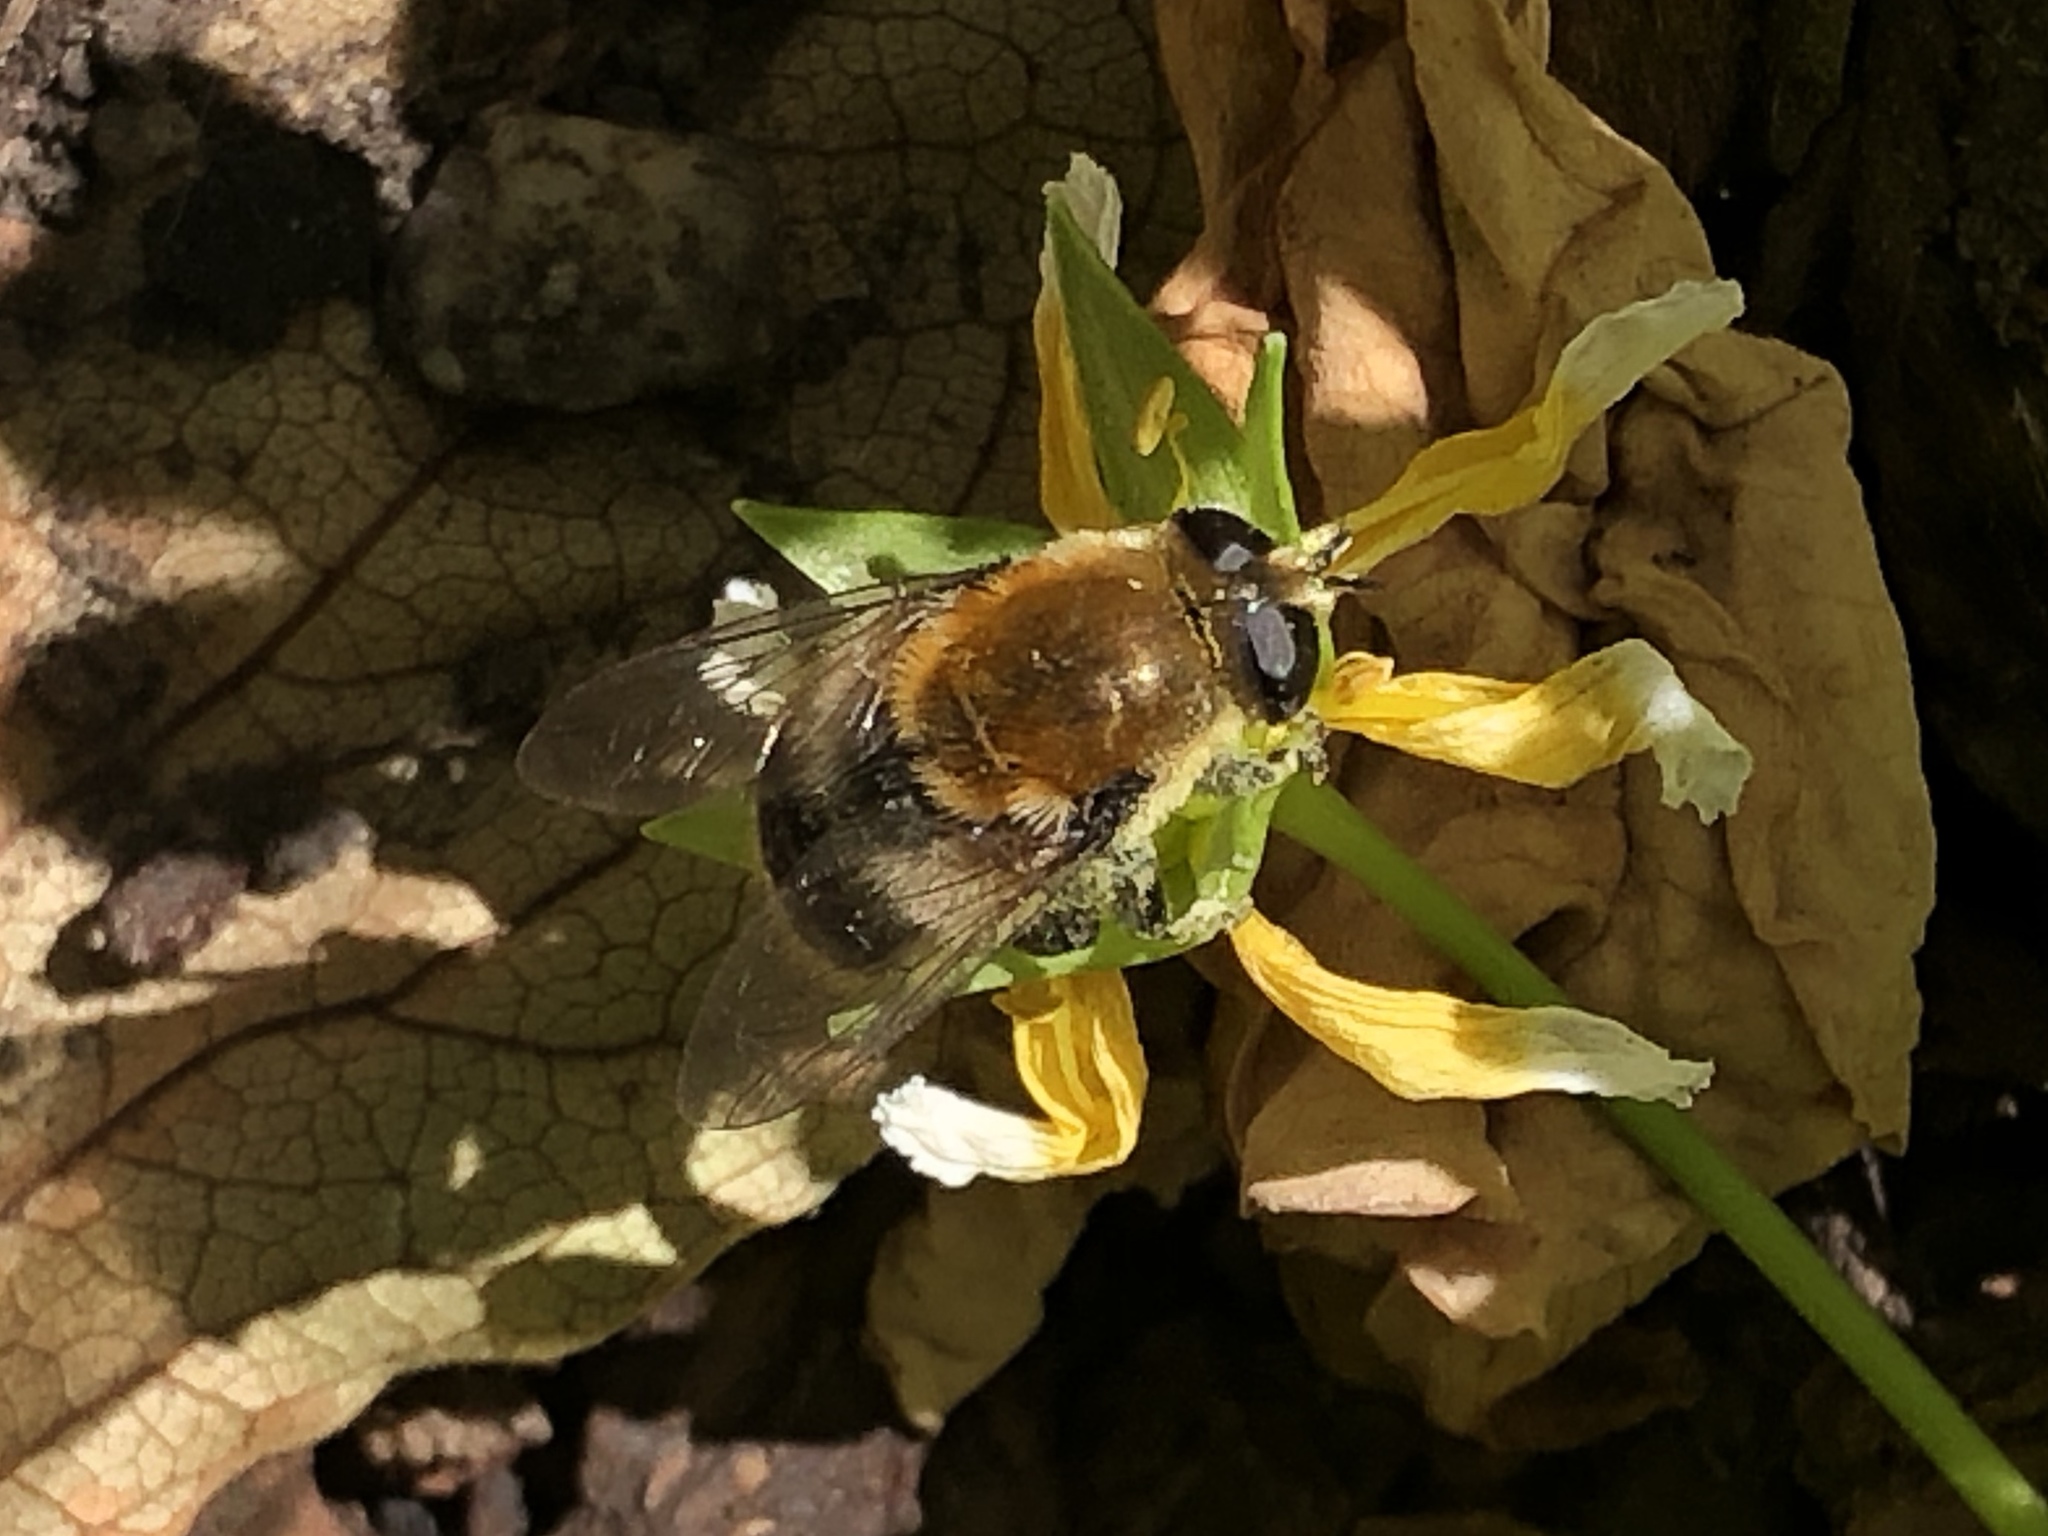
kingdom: Animalia
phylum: Arthropoda
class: Insecta
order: Diptera
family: Syrphidae
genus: Merodon
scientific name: Merodon equestris
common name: Greater bulb-fly
